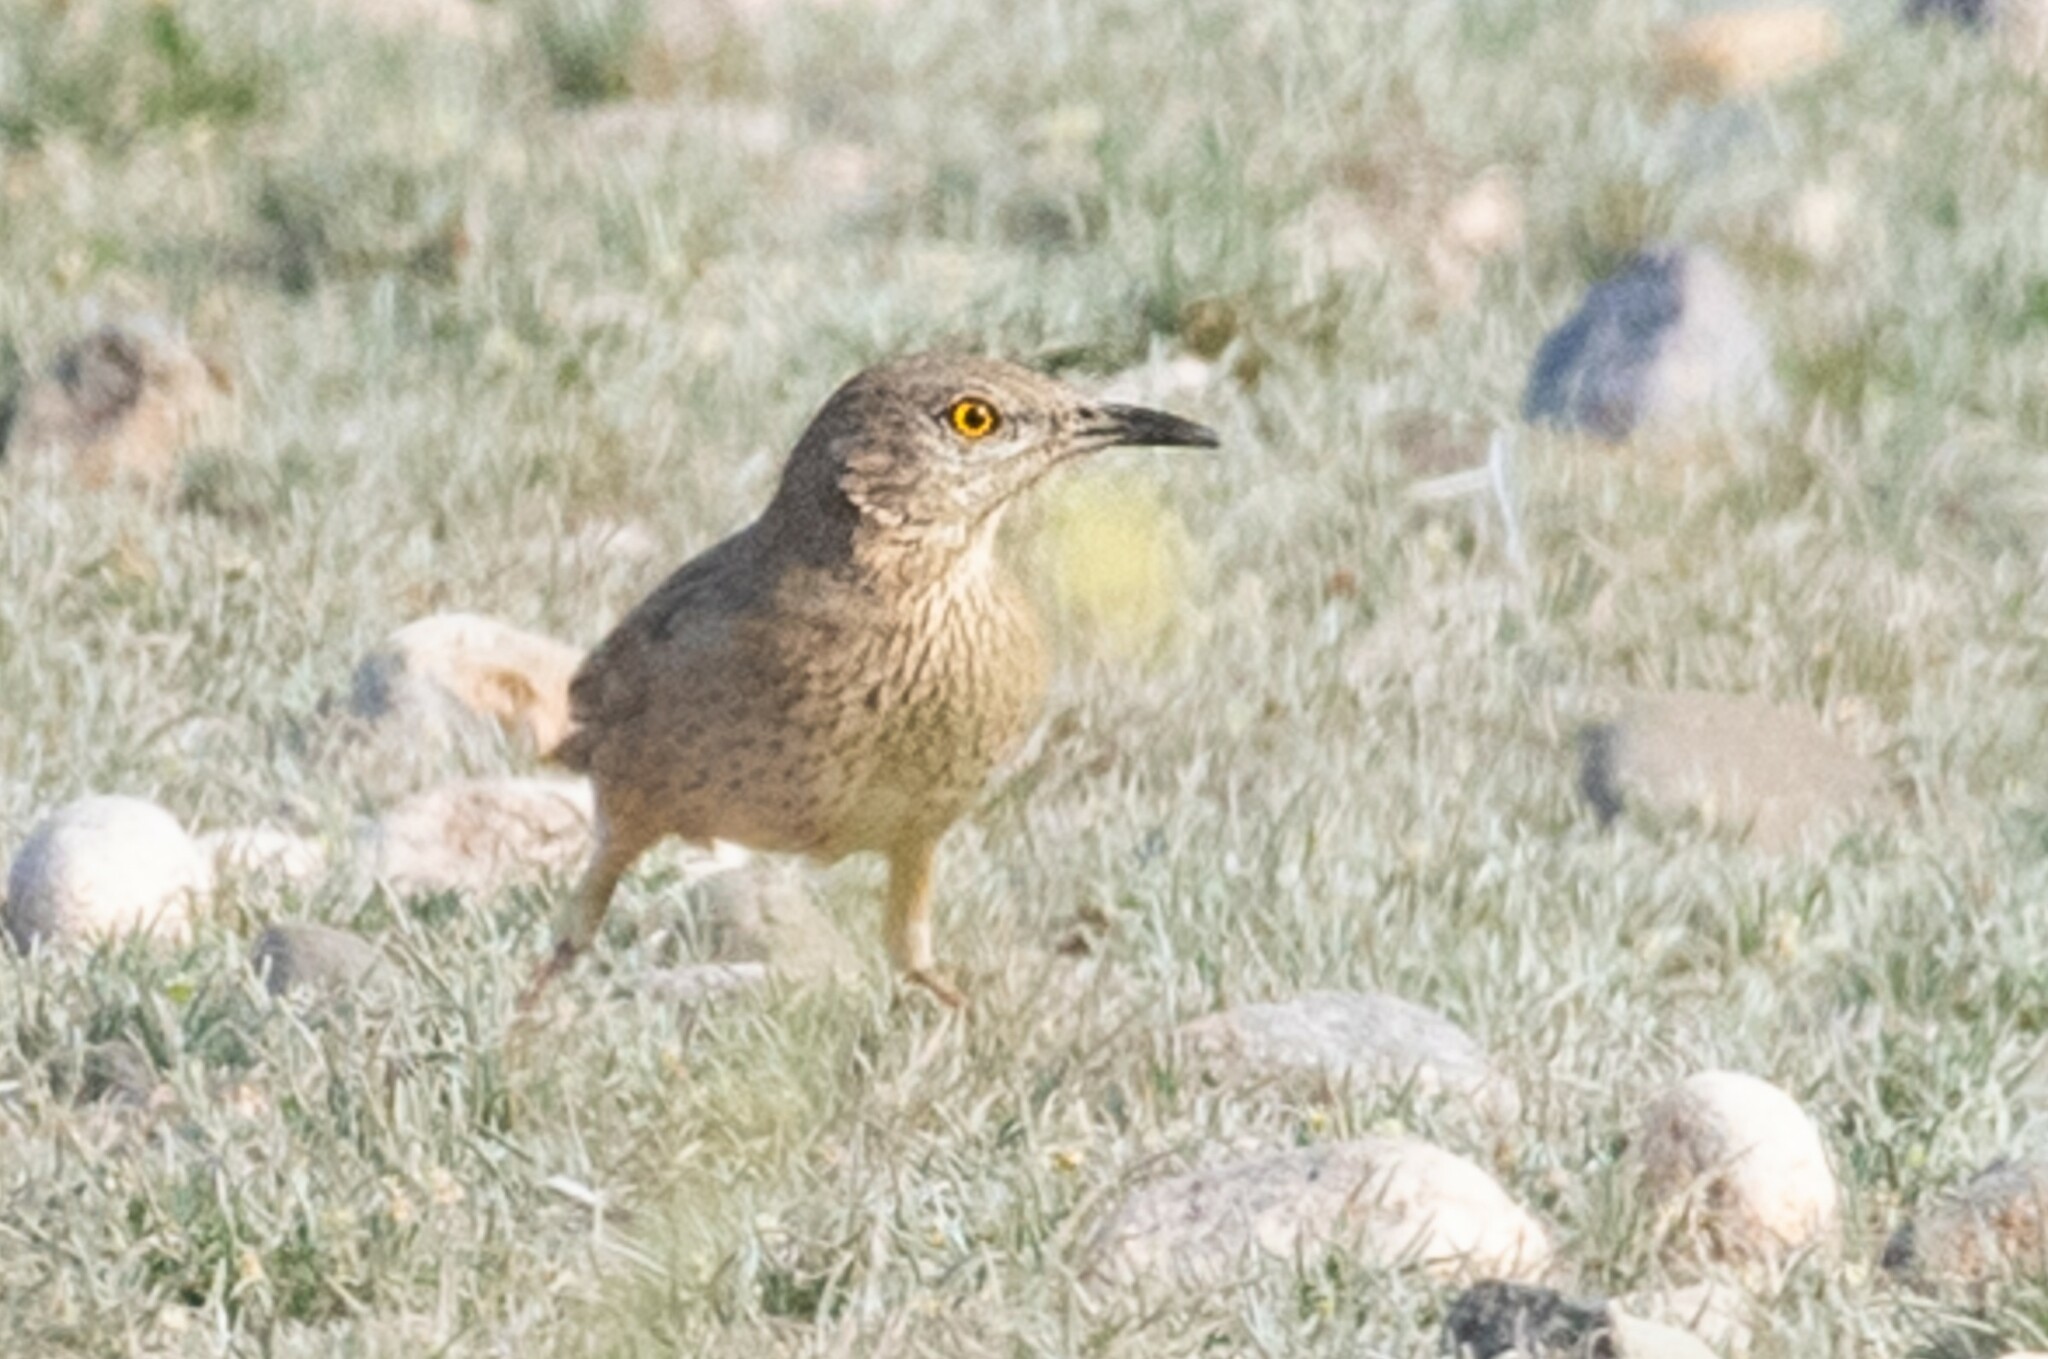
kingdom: Animalia
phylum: Chordata
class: Aves
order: Passeriformes
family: Mimidae
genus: Toxostoma
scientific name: Toxostoma bendirei
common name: Bendire's thrasher
